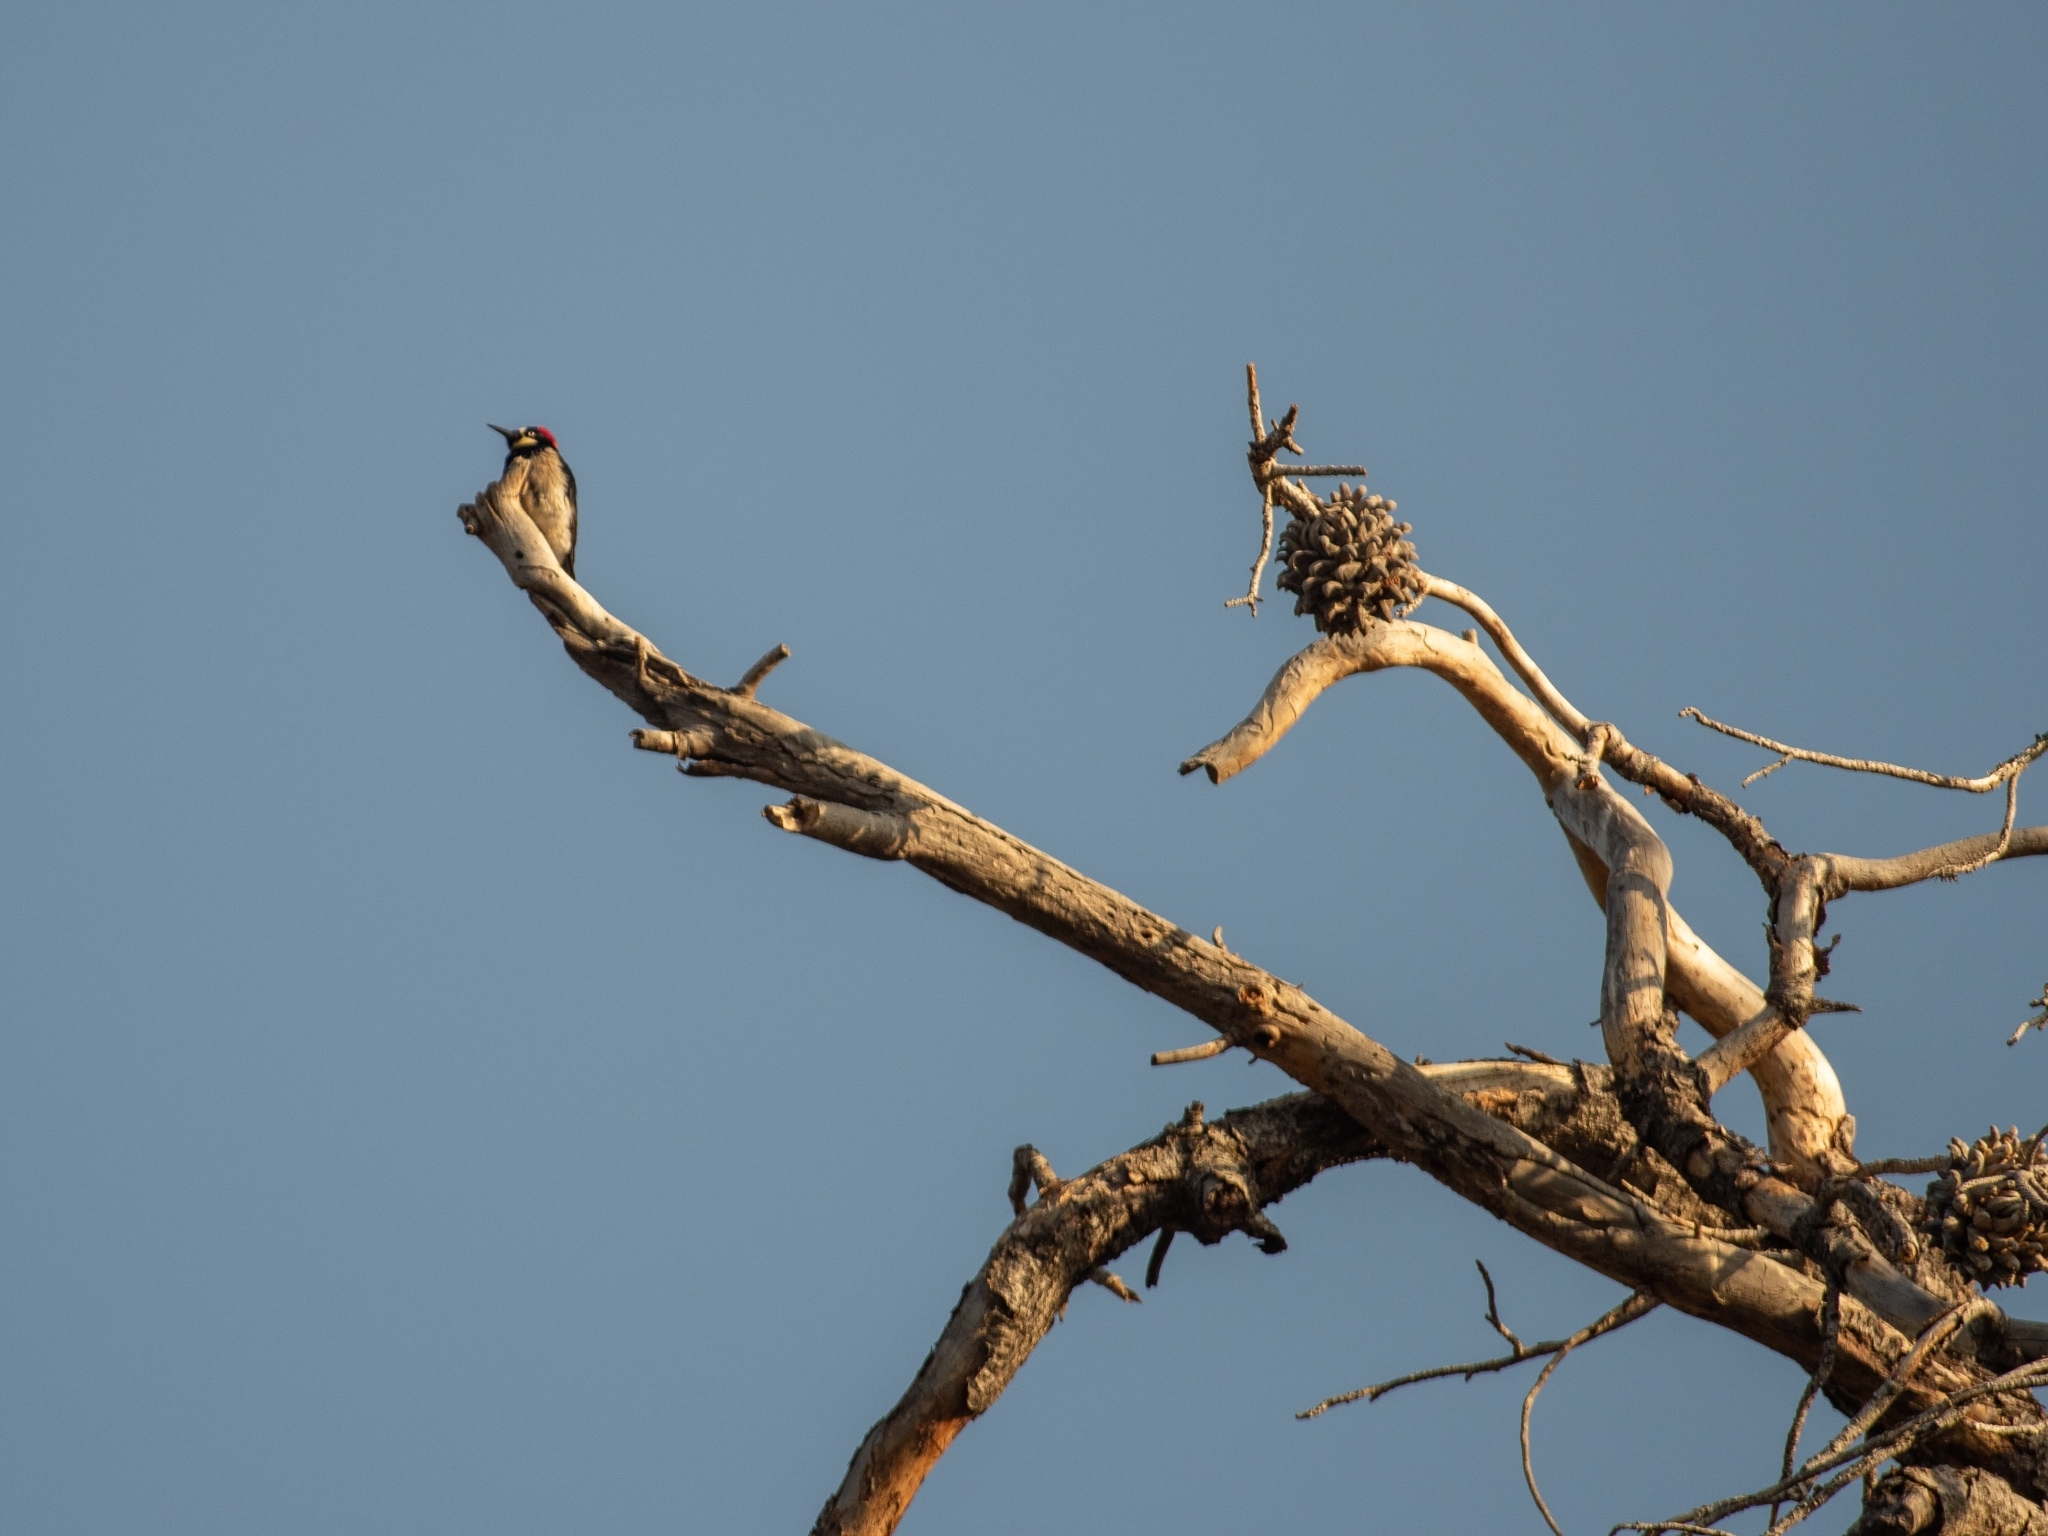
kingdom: Animalia
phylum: Chordata
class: Aves
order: Piciformes
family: Picidae
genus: Melanerpes
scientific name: Melanerpes formicivorus
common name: Acorn woodpecker
